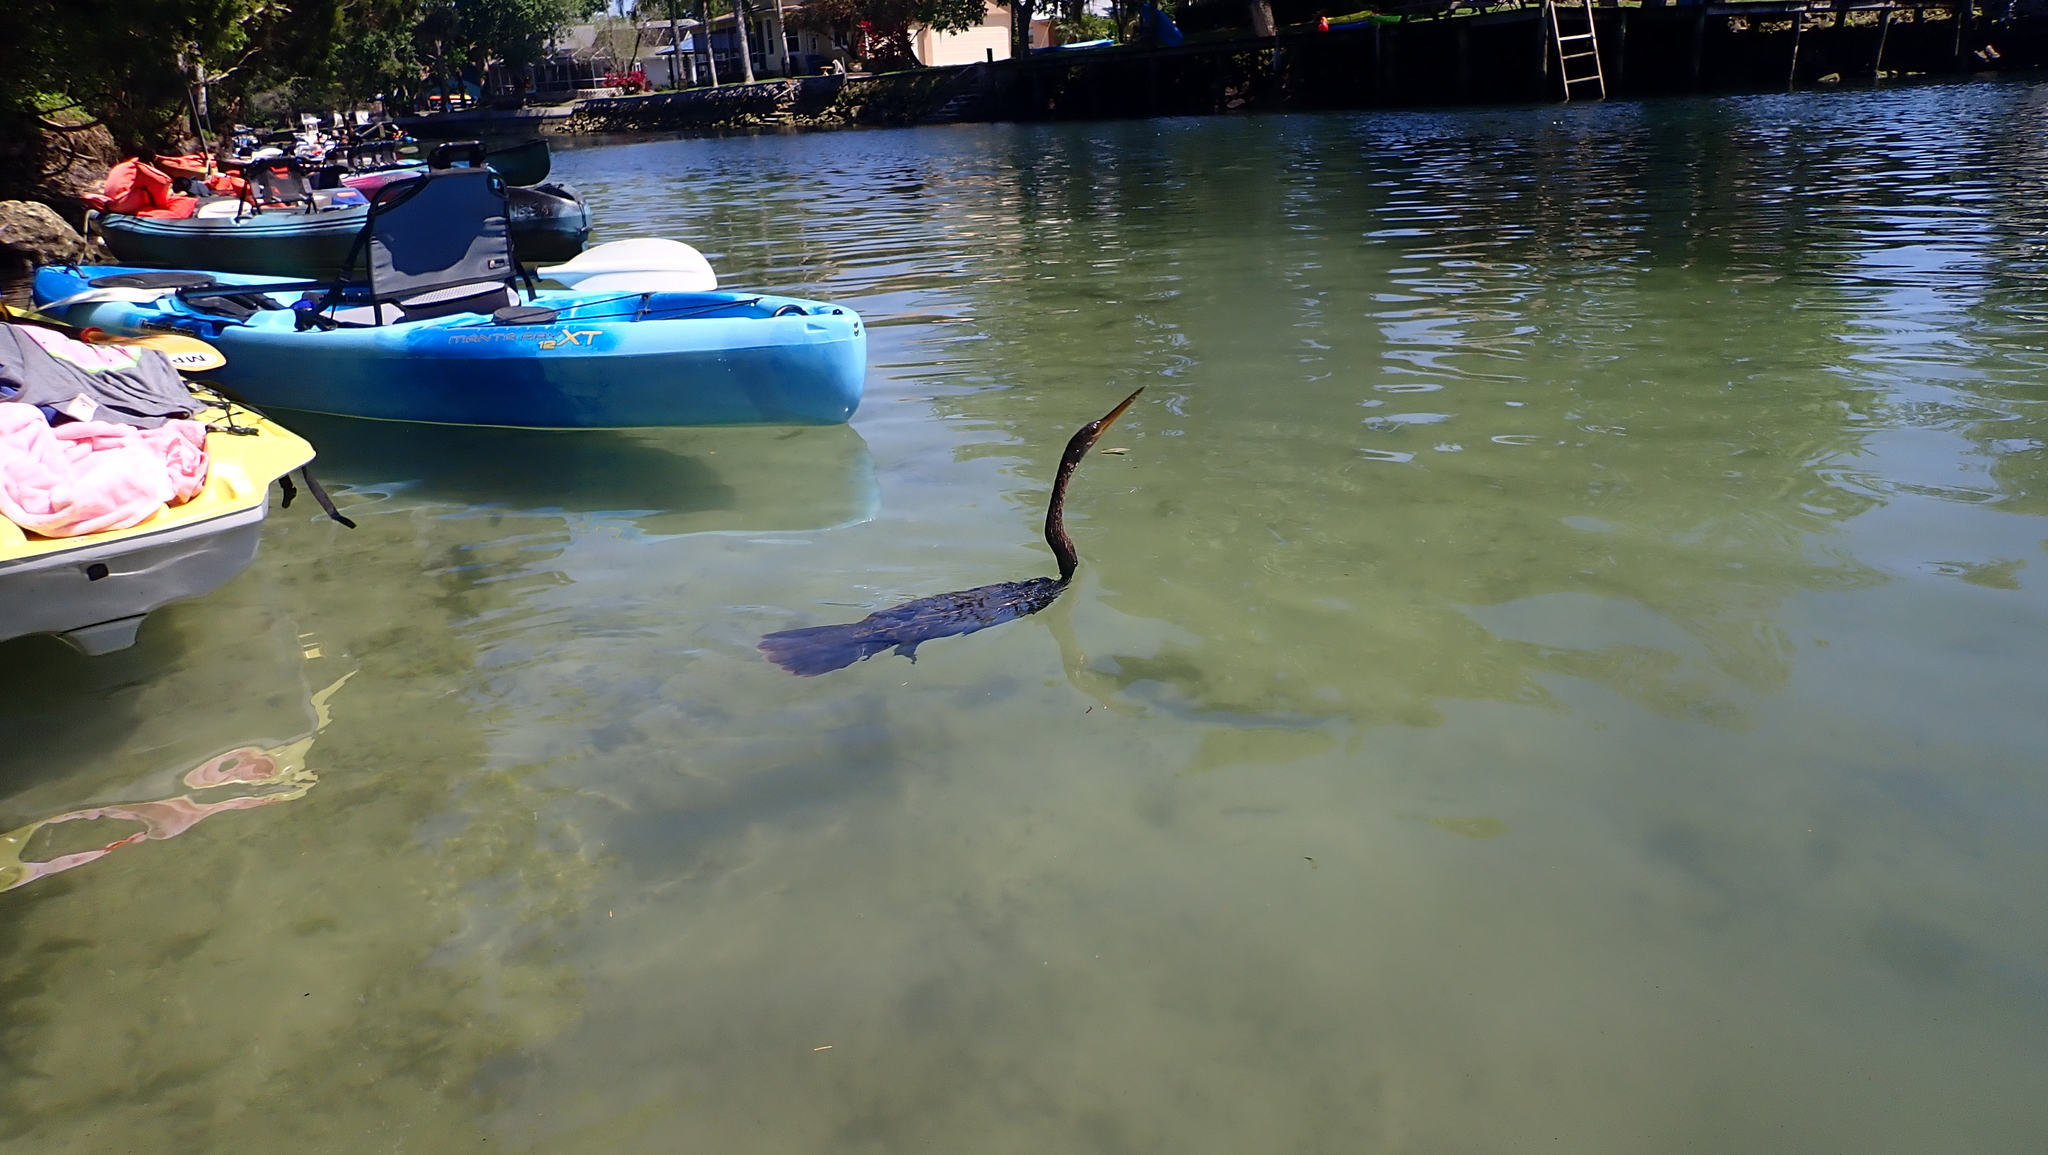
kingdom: Animalia
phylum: Chordata
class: Aves
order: Suliformes
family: Anhingidae
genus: Anhinga
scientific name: Anhinga anhinga
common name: Anhinga
